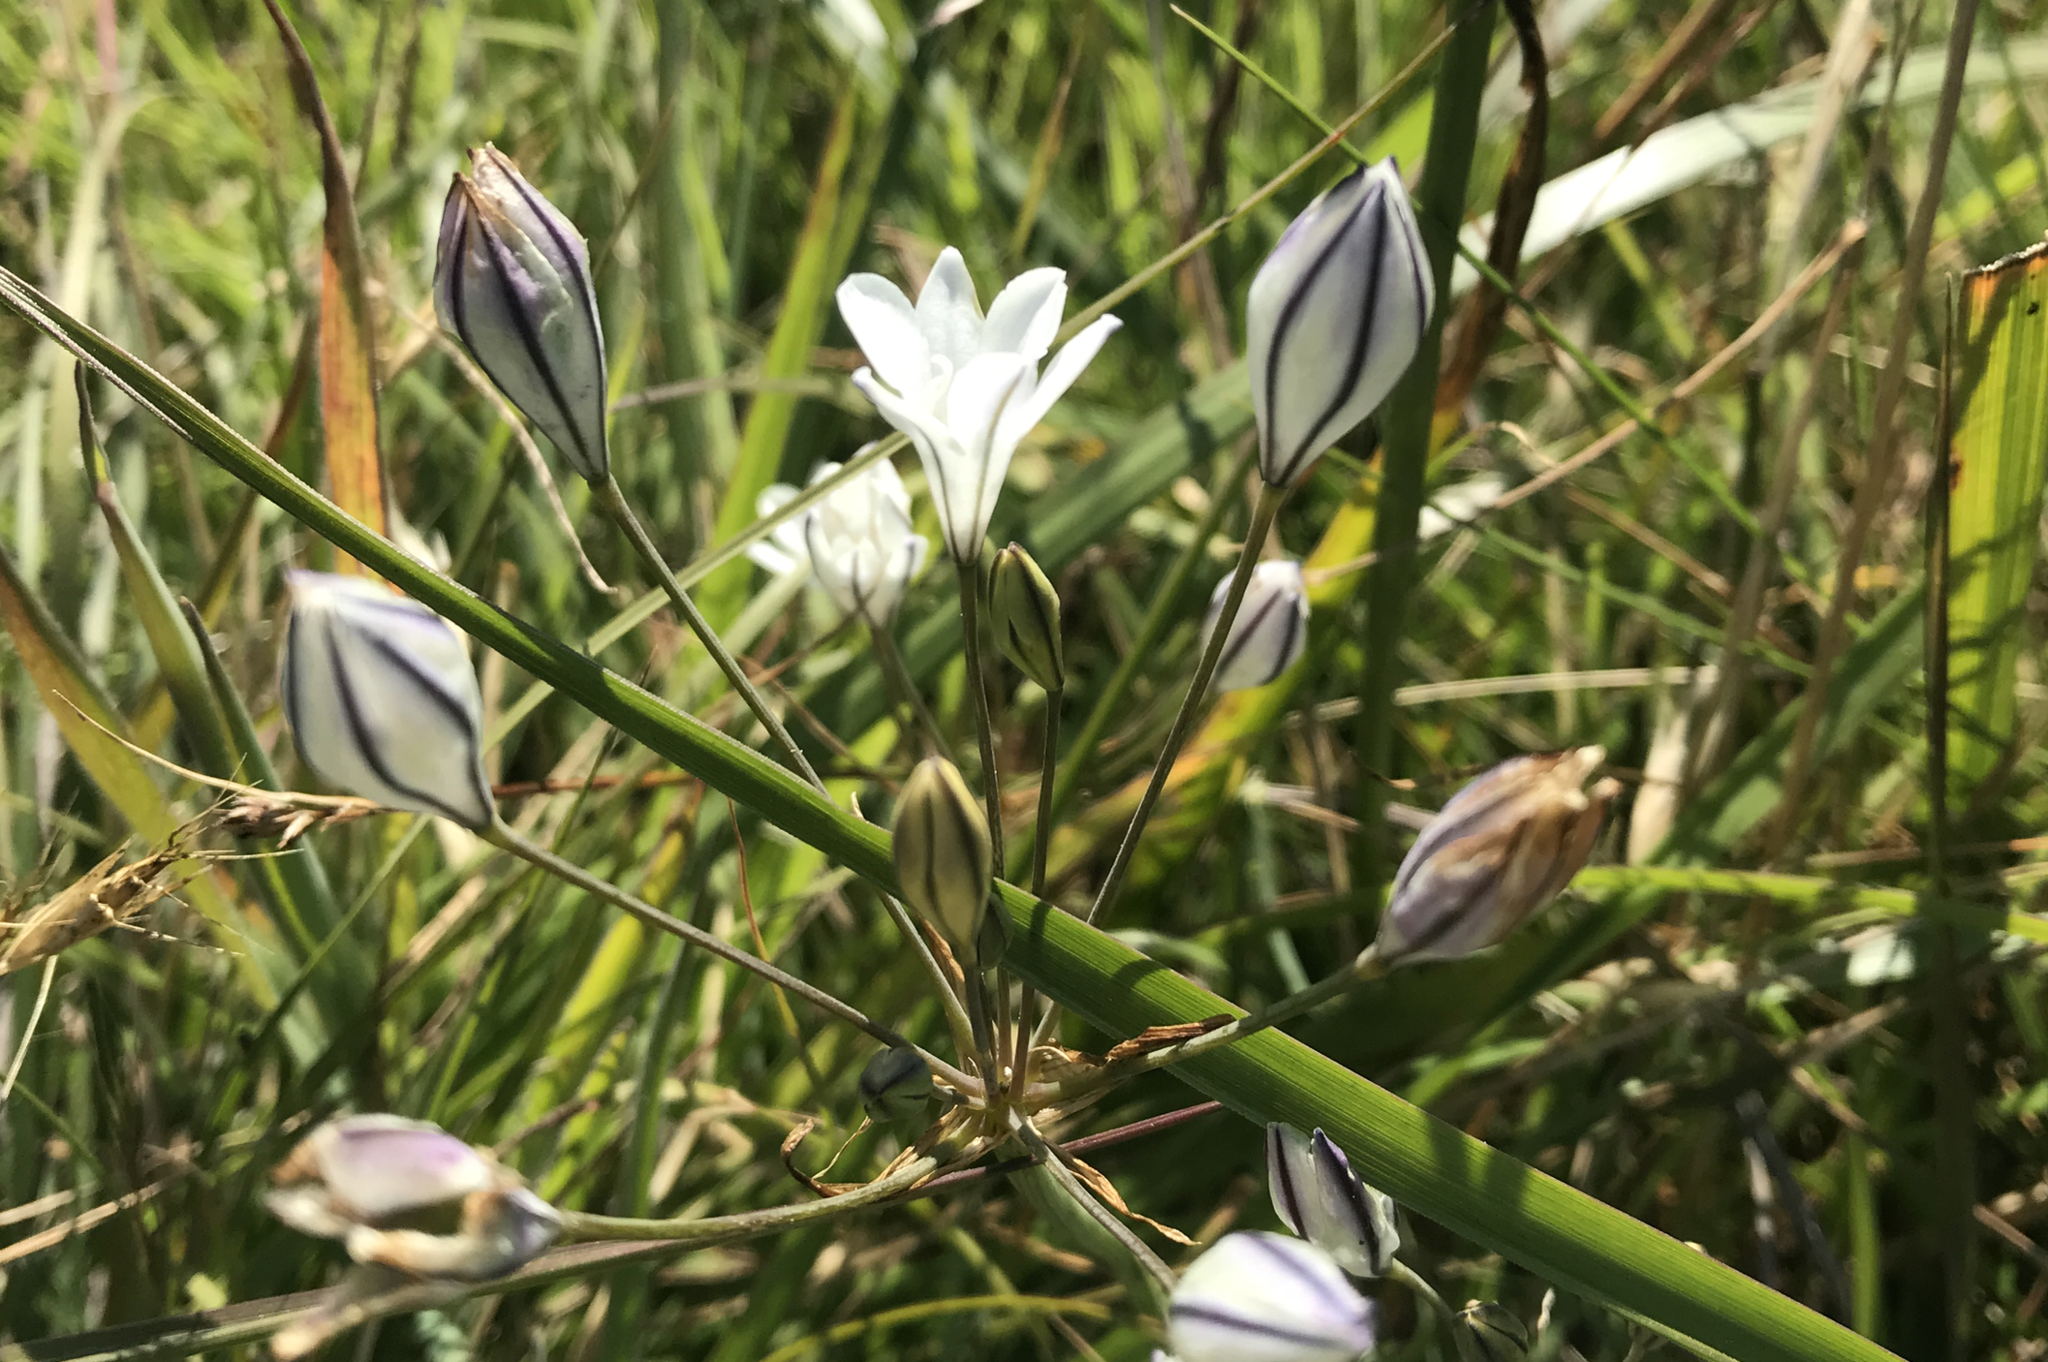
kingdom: Plantae
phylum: Tracheophyta
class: Liliopsida
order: Asparagales
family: Asparagaceae
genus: Triteleia
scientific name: Triteleia peduncularis
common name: Long-ray brodiaea
